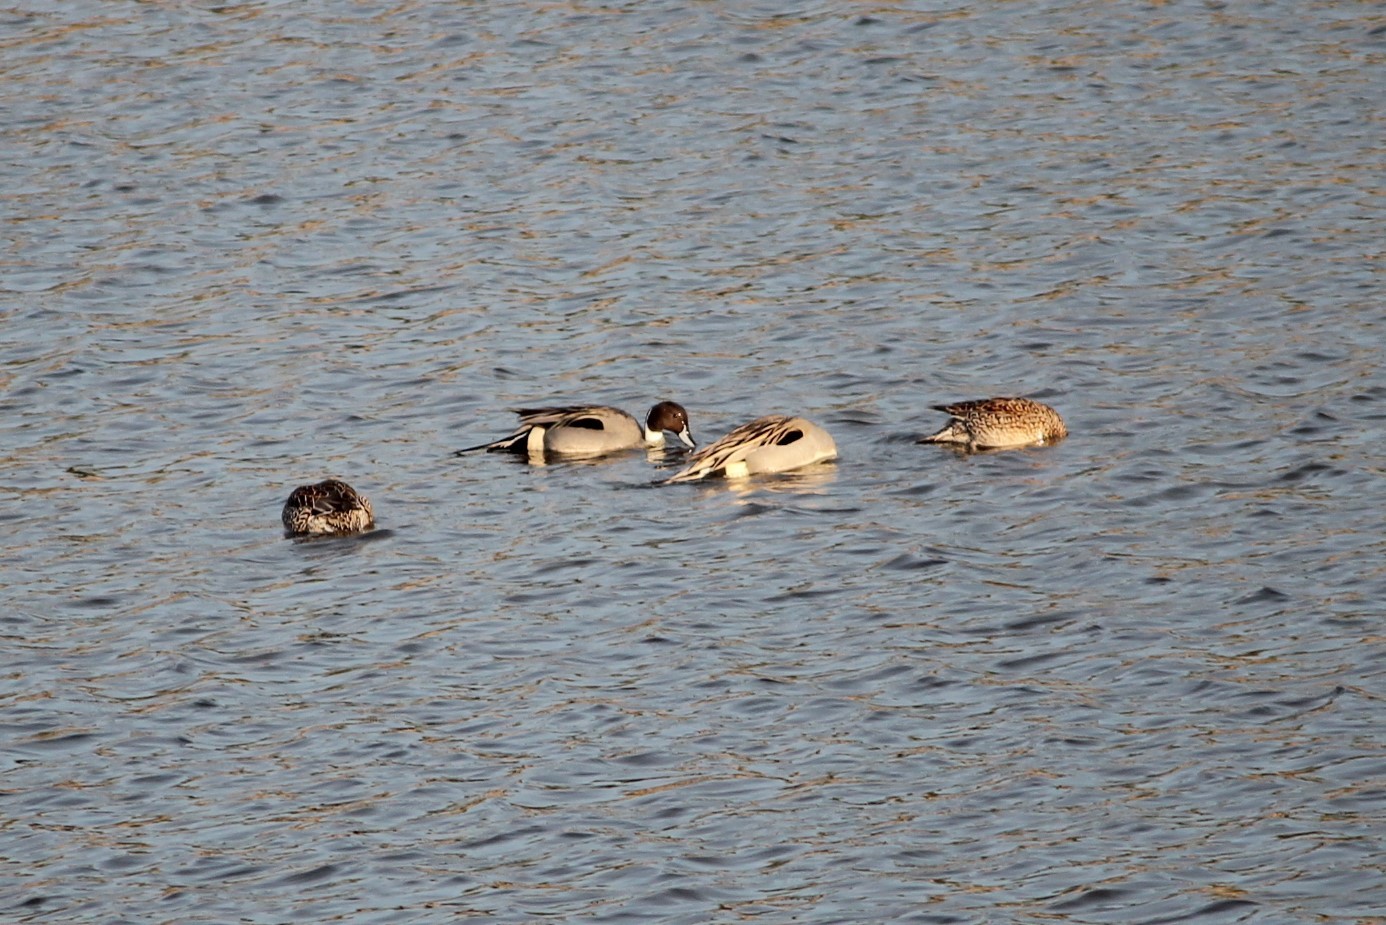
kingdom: Animalia
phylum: Chordata
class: Aves
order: Anseriformes
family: Anatidae
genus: Anas
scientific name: Anas acuta
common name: Northern pintail
